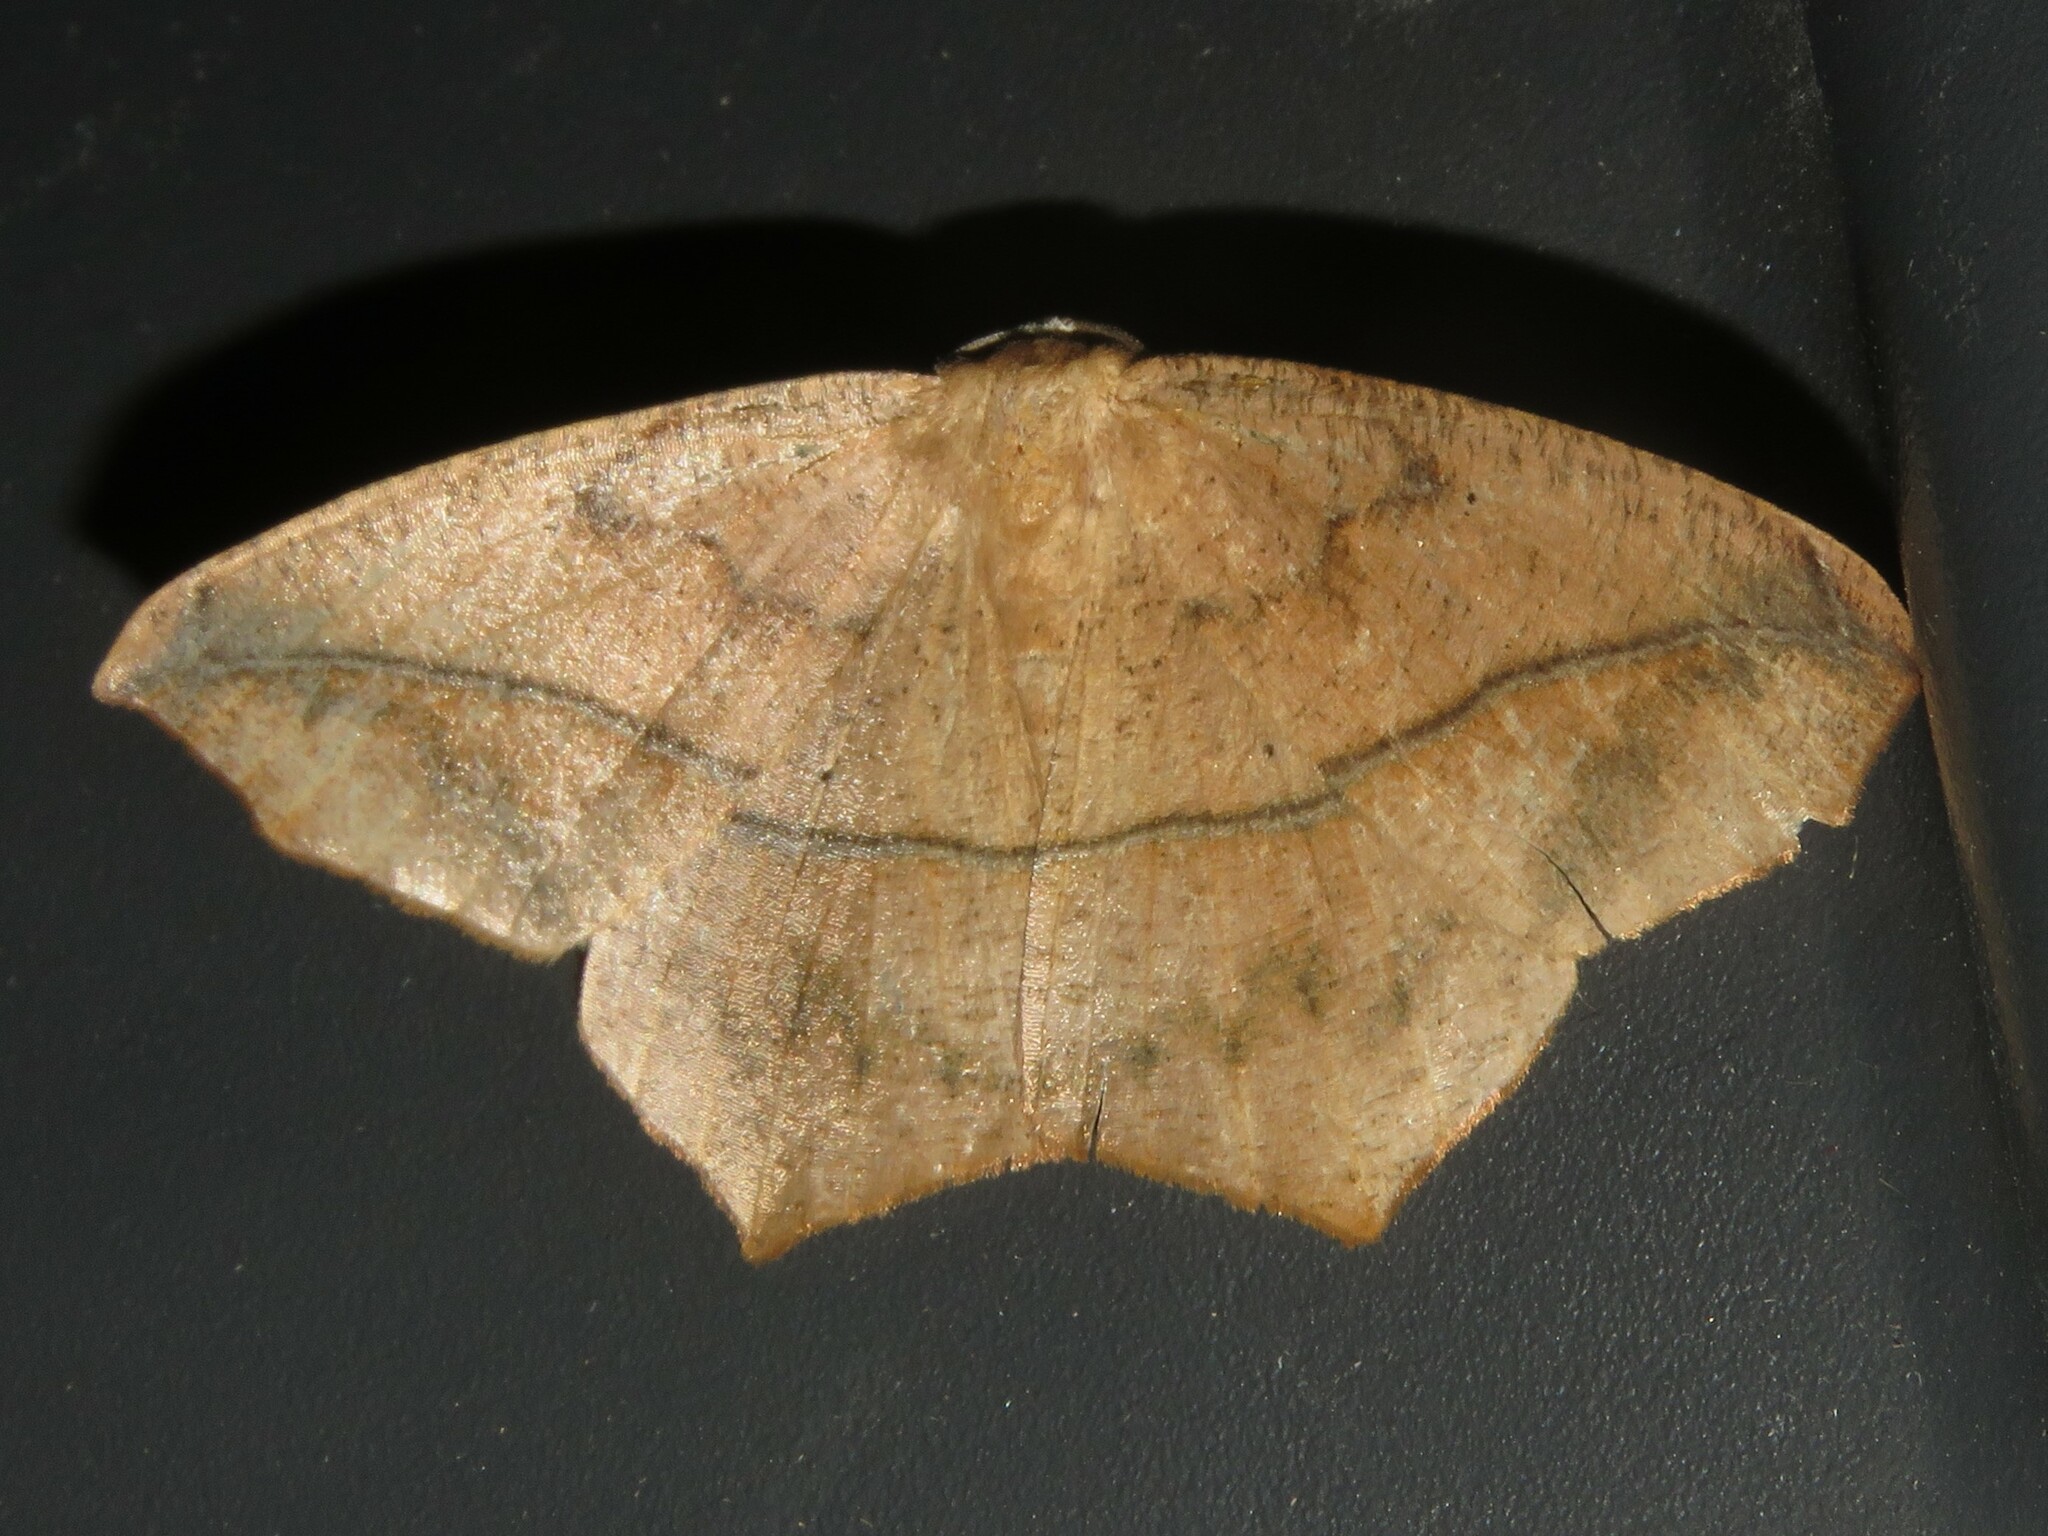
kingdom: Animalia
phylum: Arthropoda
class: Insecta
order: Lepidoptera
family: Geometridae
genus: Prochoerodes
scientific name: Prochoerodes lineola
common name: Large maple spanworm
